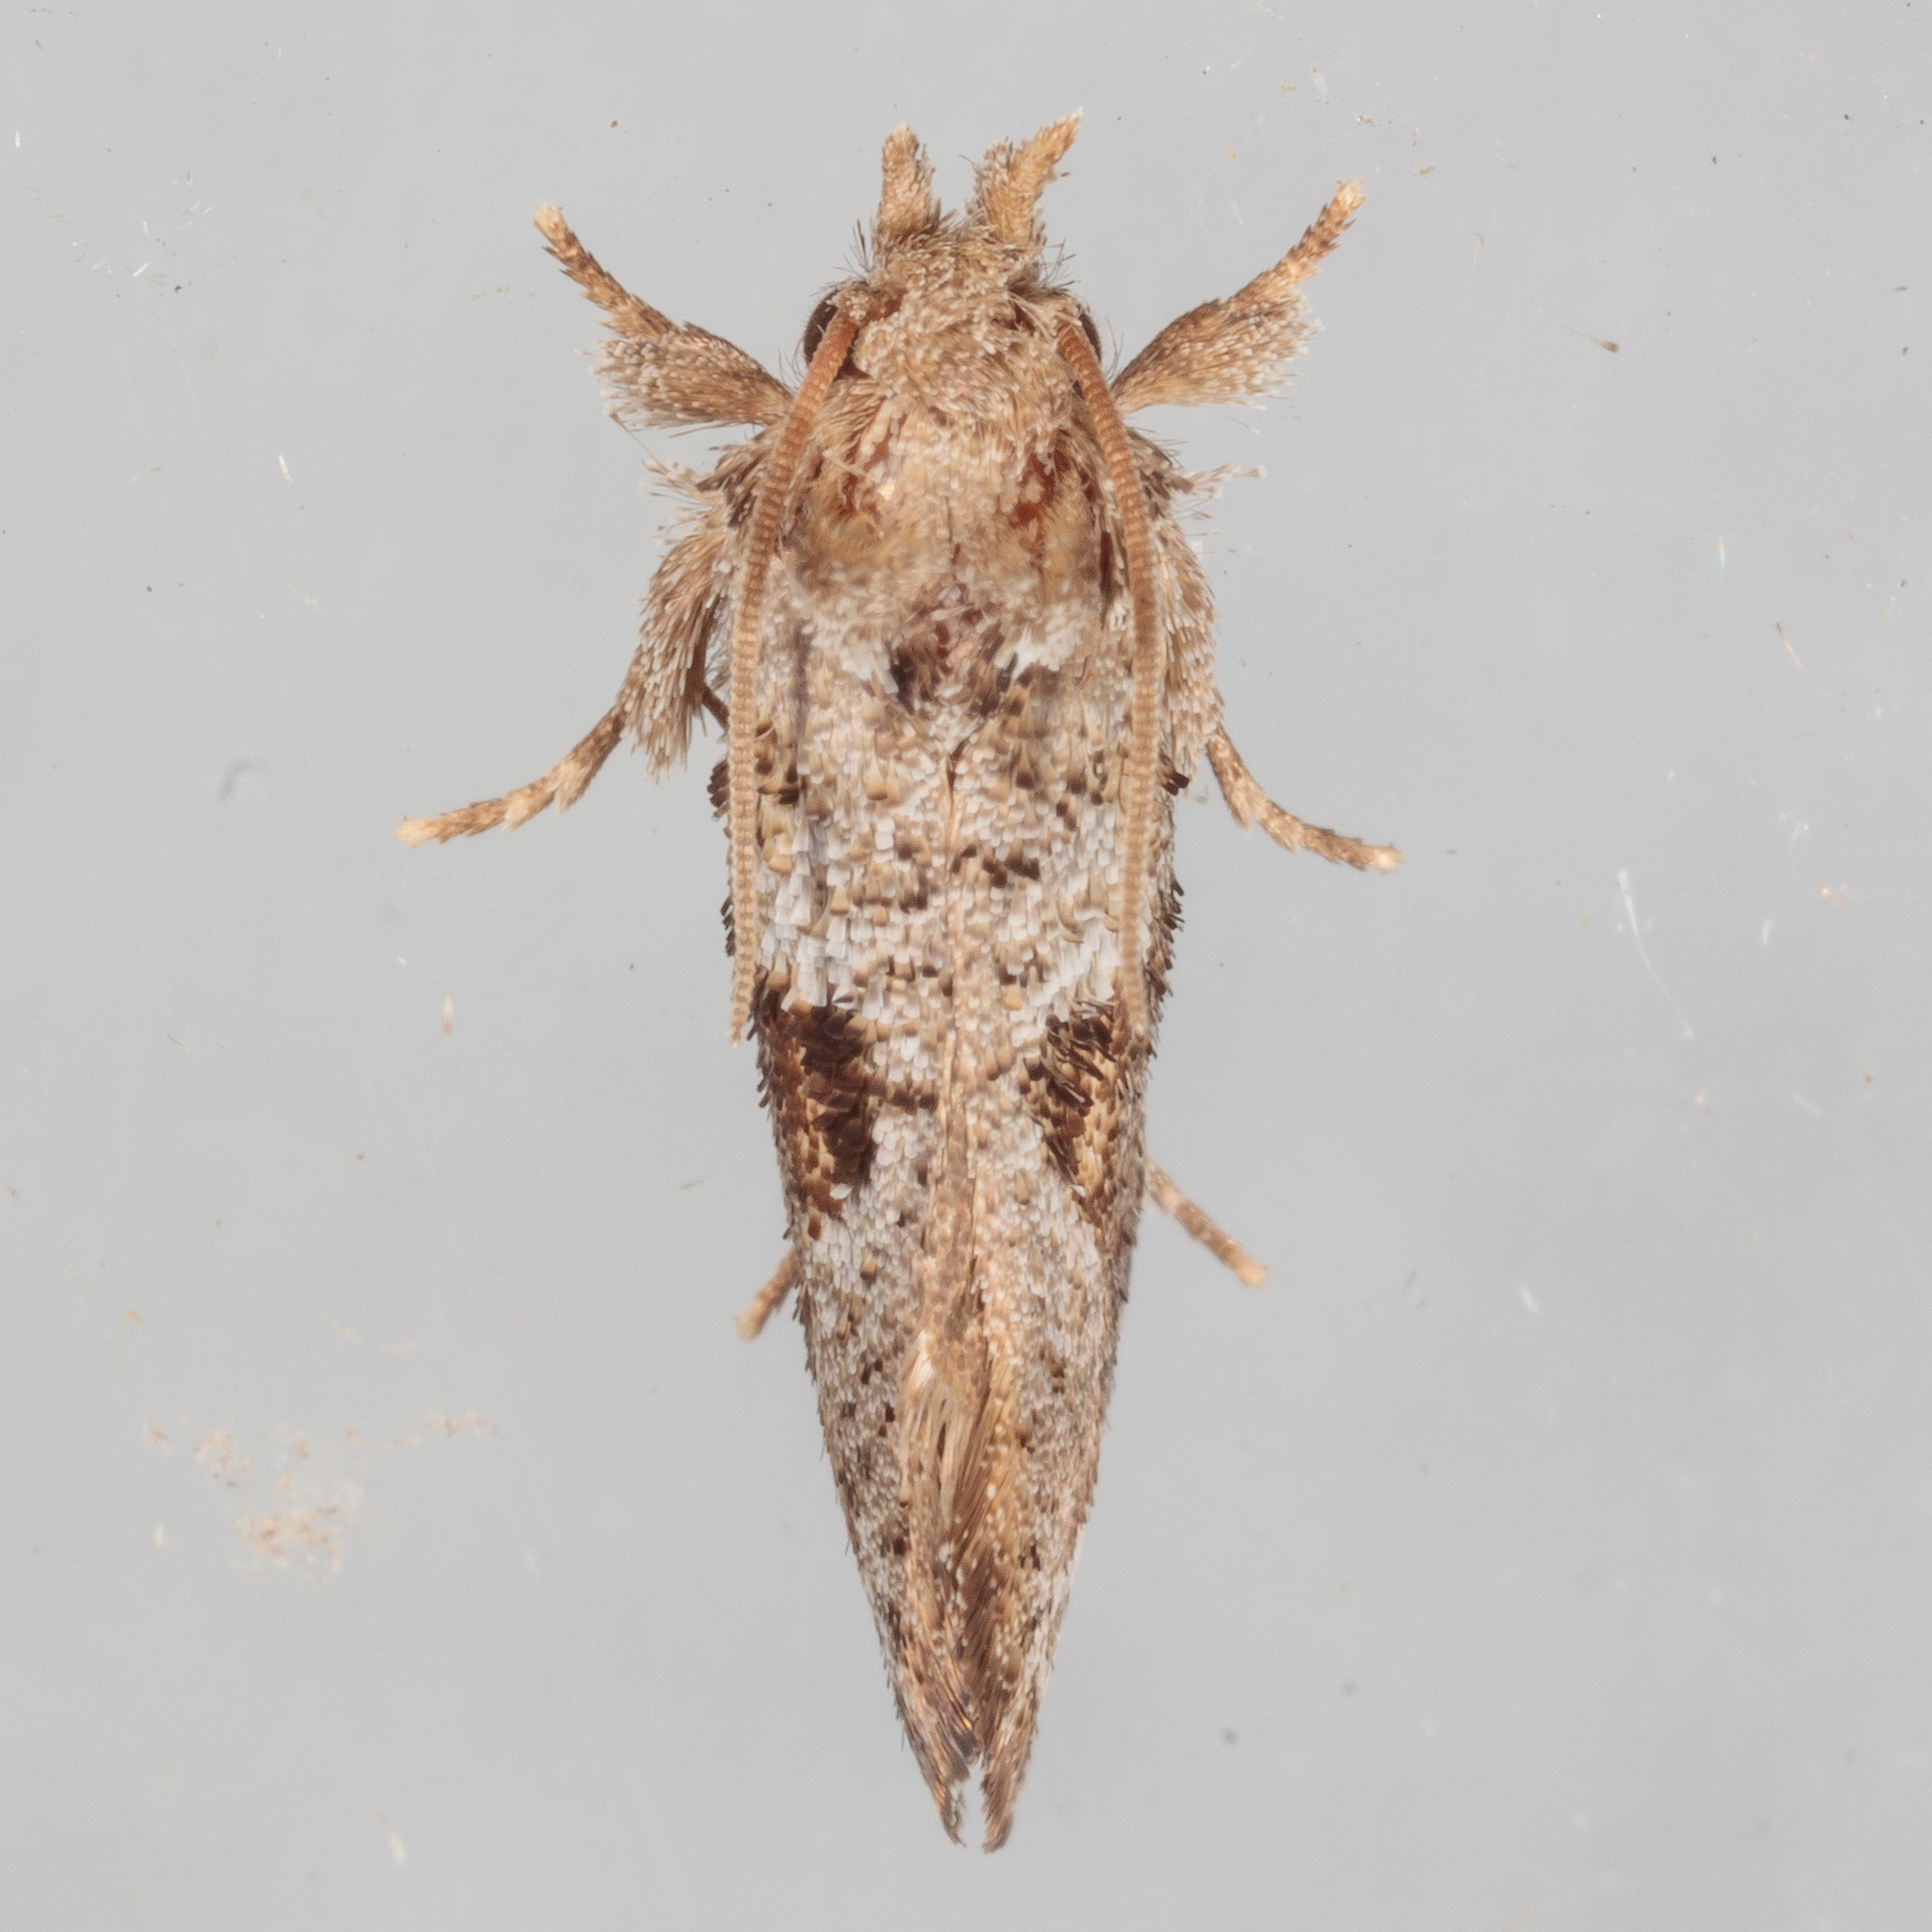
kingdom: Animalia
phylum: Arthropoda
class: Insecta
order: Lepidoptera
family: Tineidae
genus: Acrolophus
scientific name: Acrolophus piger
